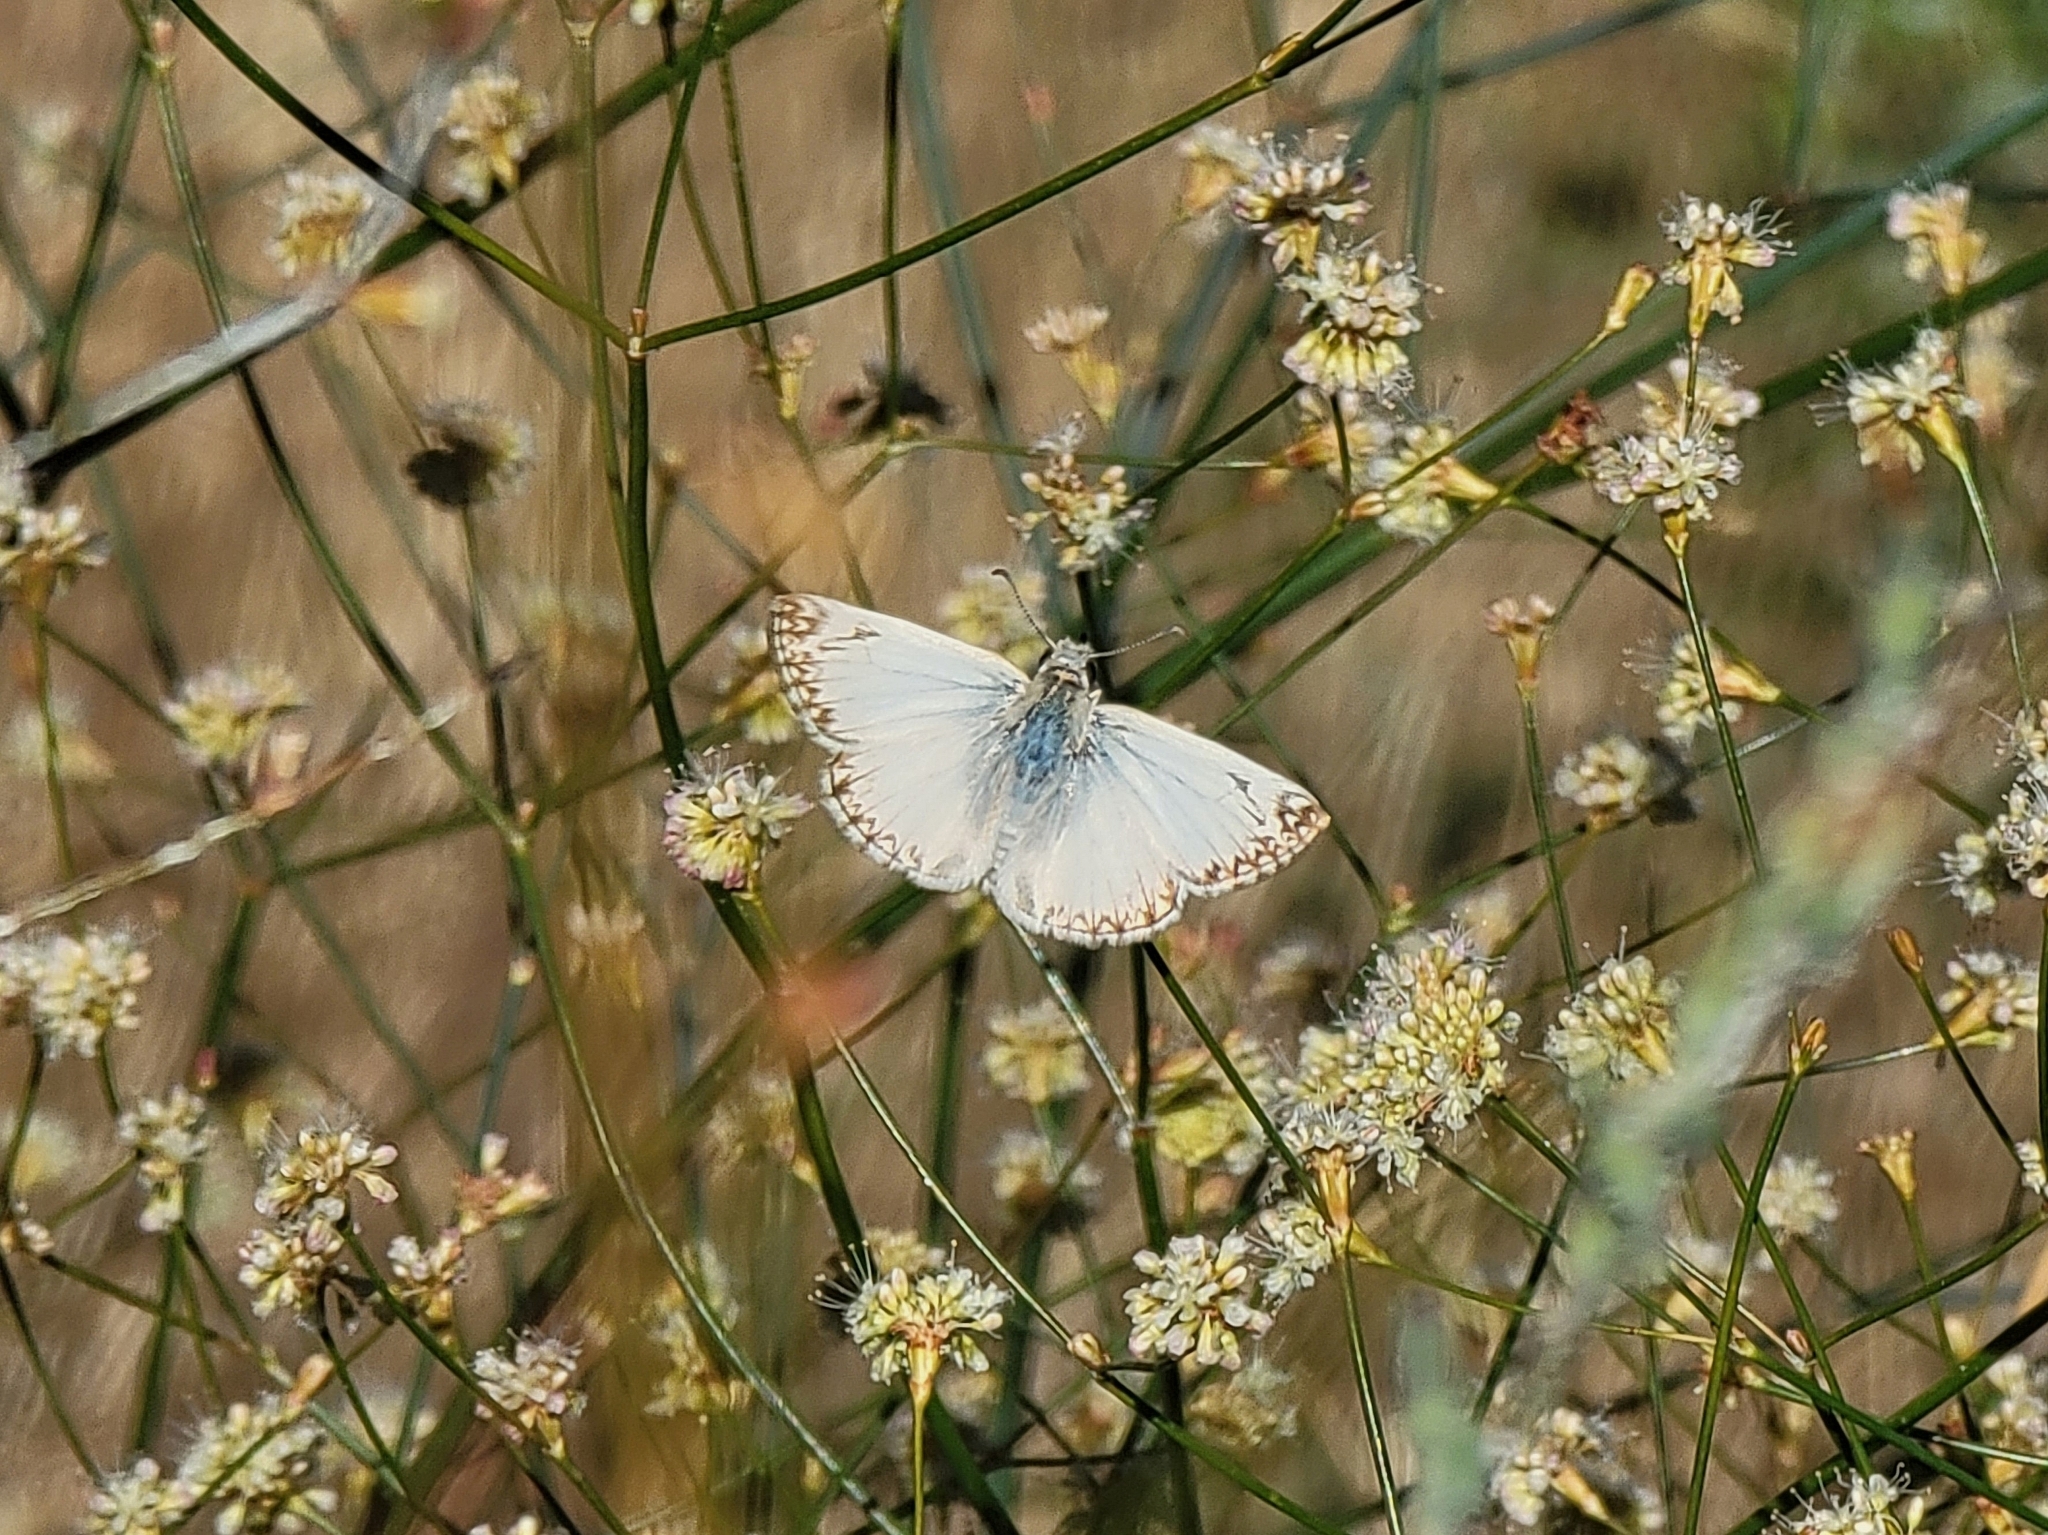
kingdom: Animalia
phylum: Arthropoda
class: Insecta
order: Lepidoptera
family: Hesperiidae
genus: Heliopetes
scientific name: Heliopetes ericetorum
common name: Northern white-skipper
